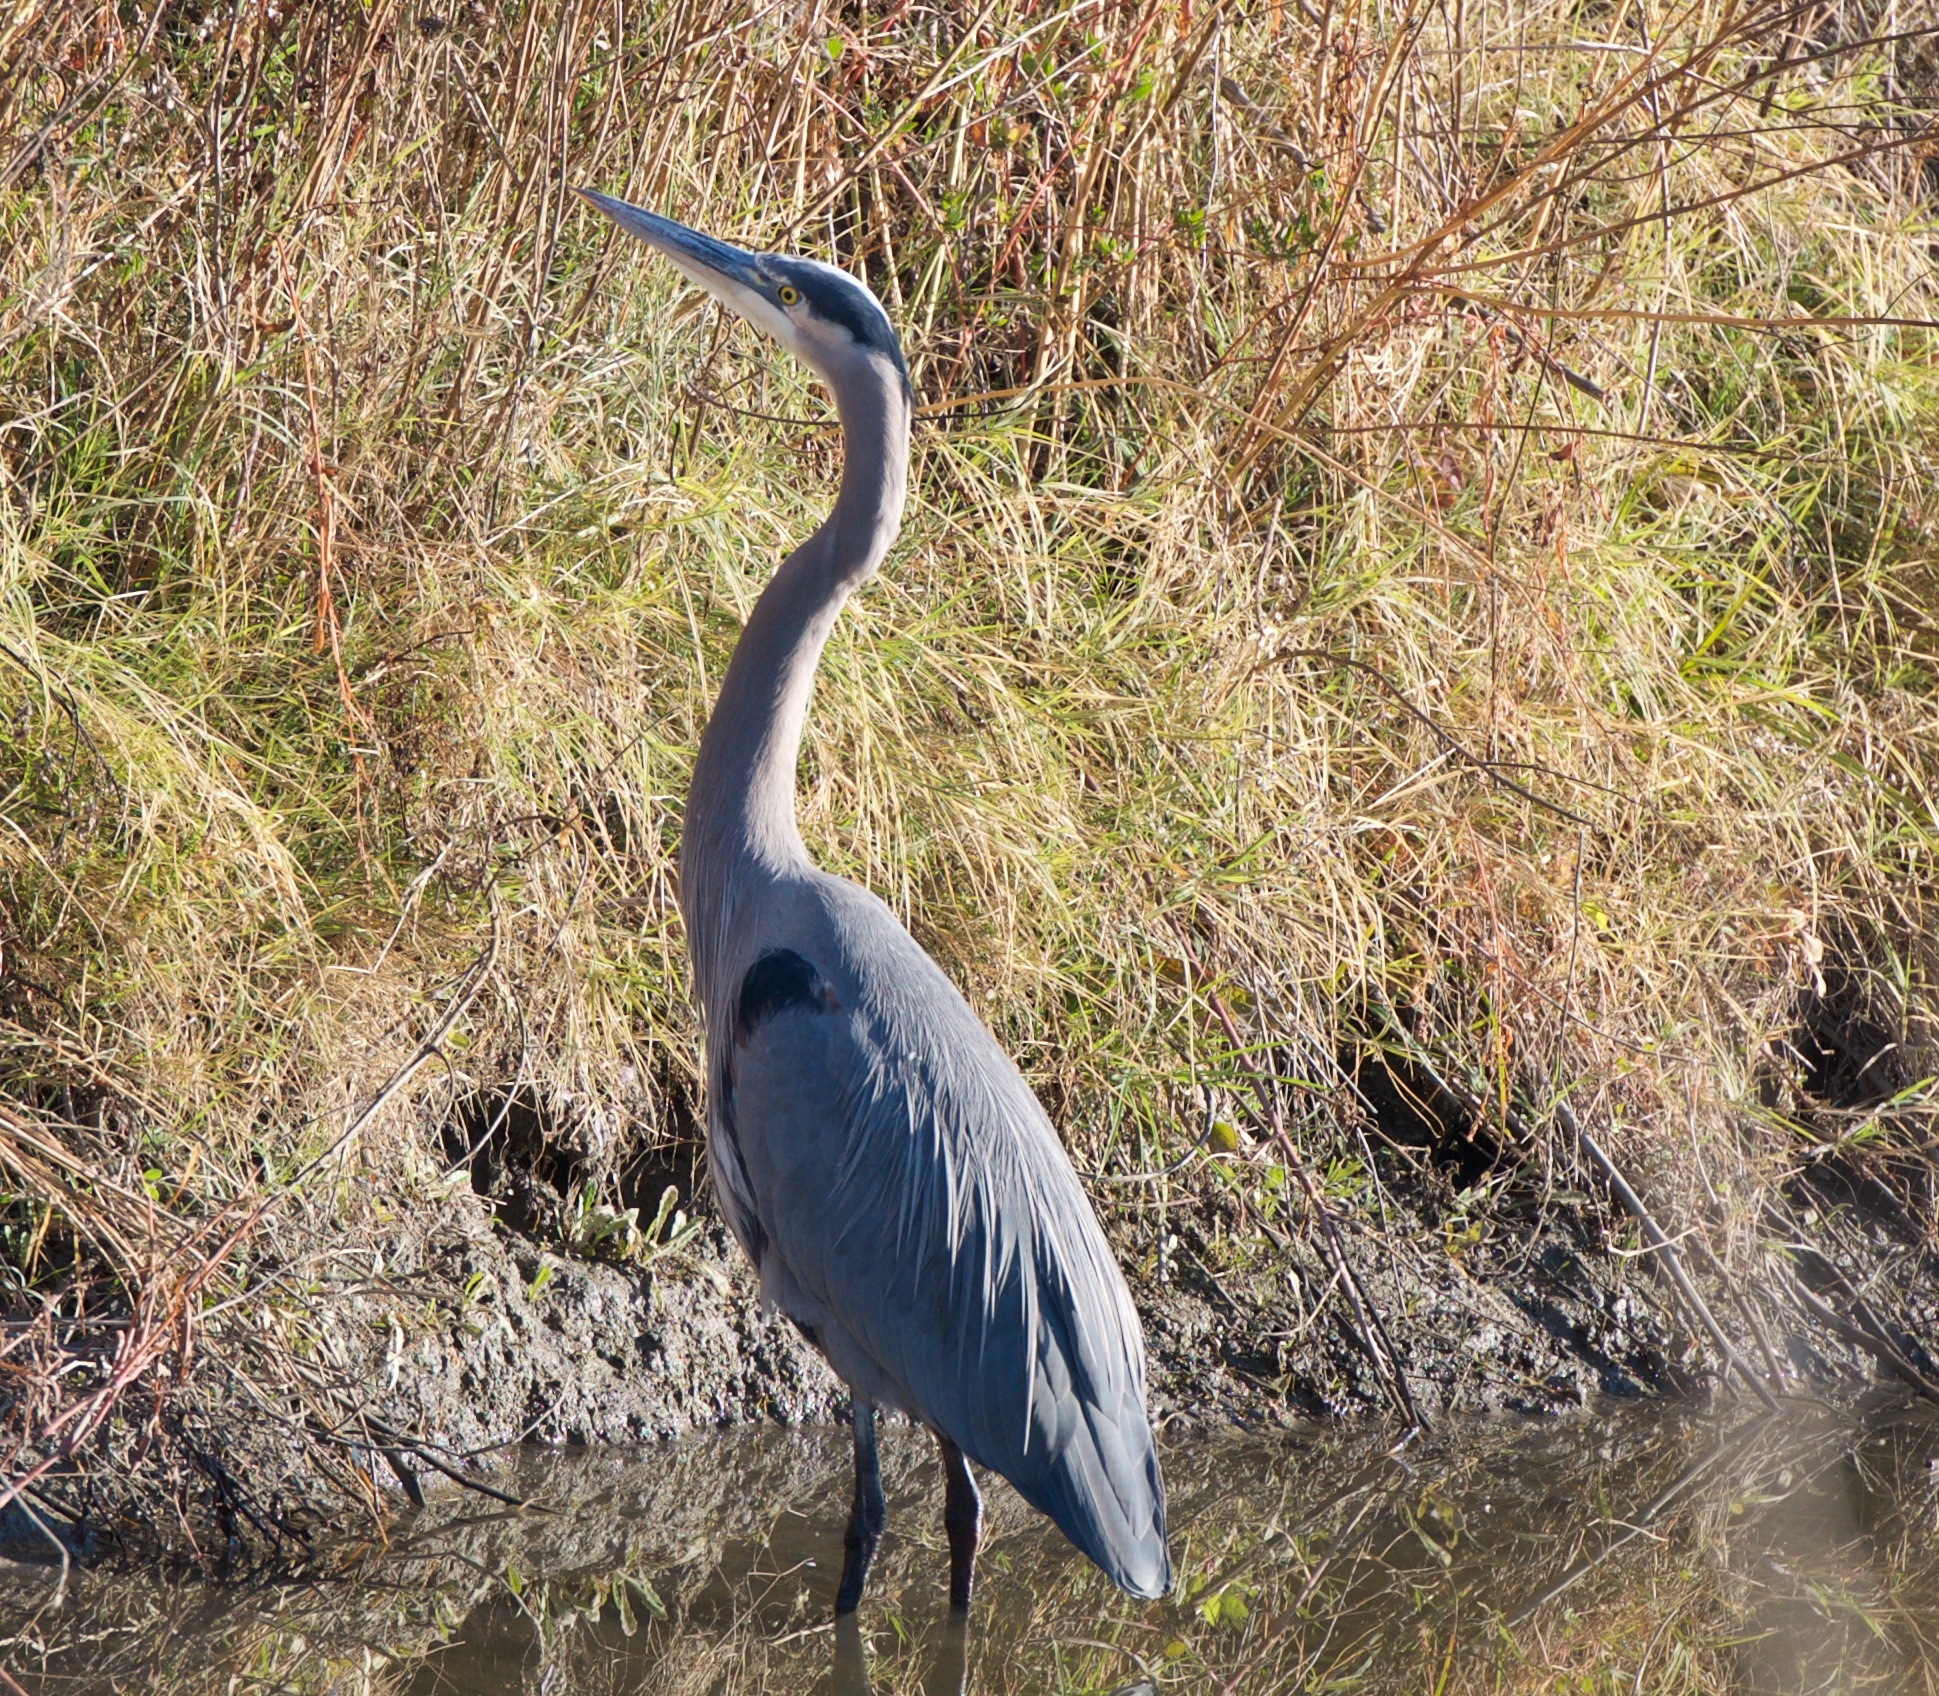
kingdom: Animalia
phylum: Chordata
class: Aves
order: Pelecaniformes
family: Ardeidae
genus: Ardea
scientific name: Ardea herodias
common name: Great blue heron
